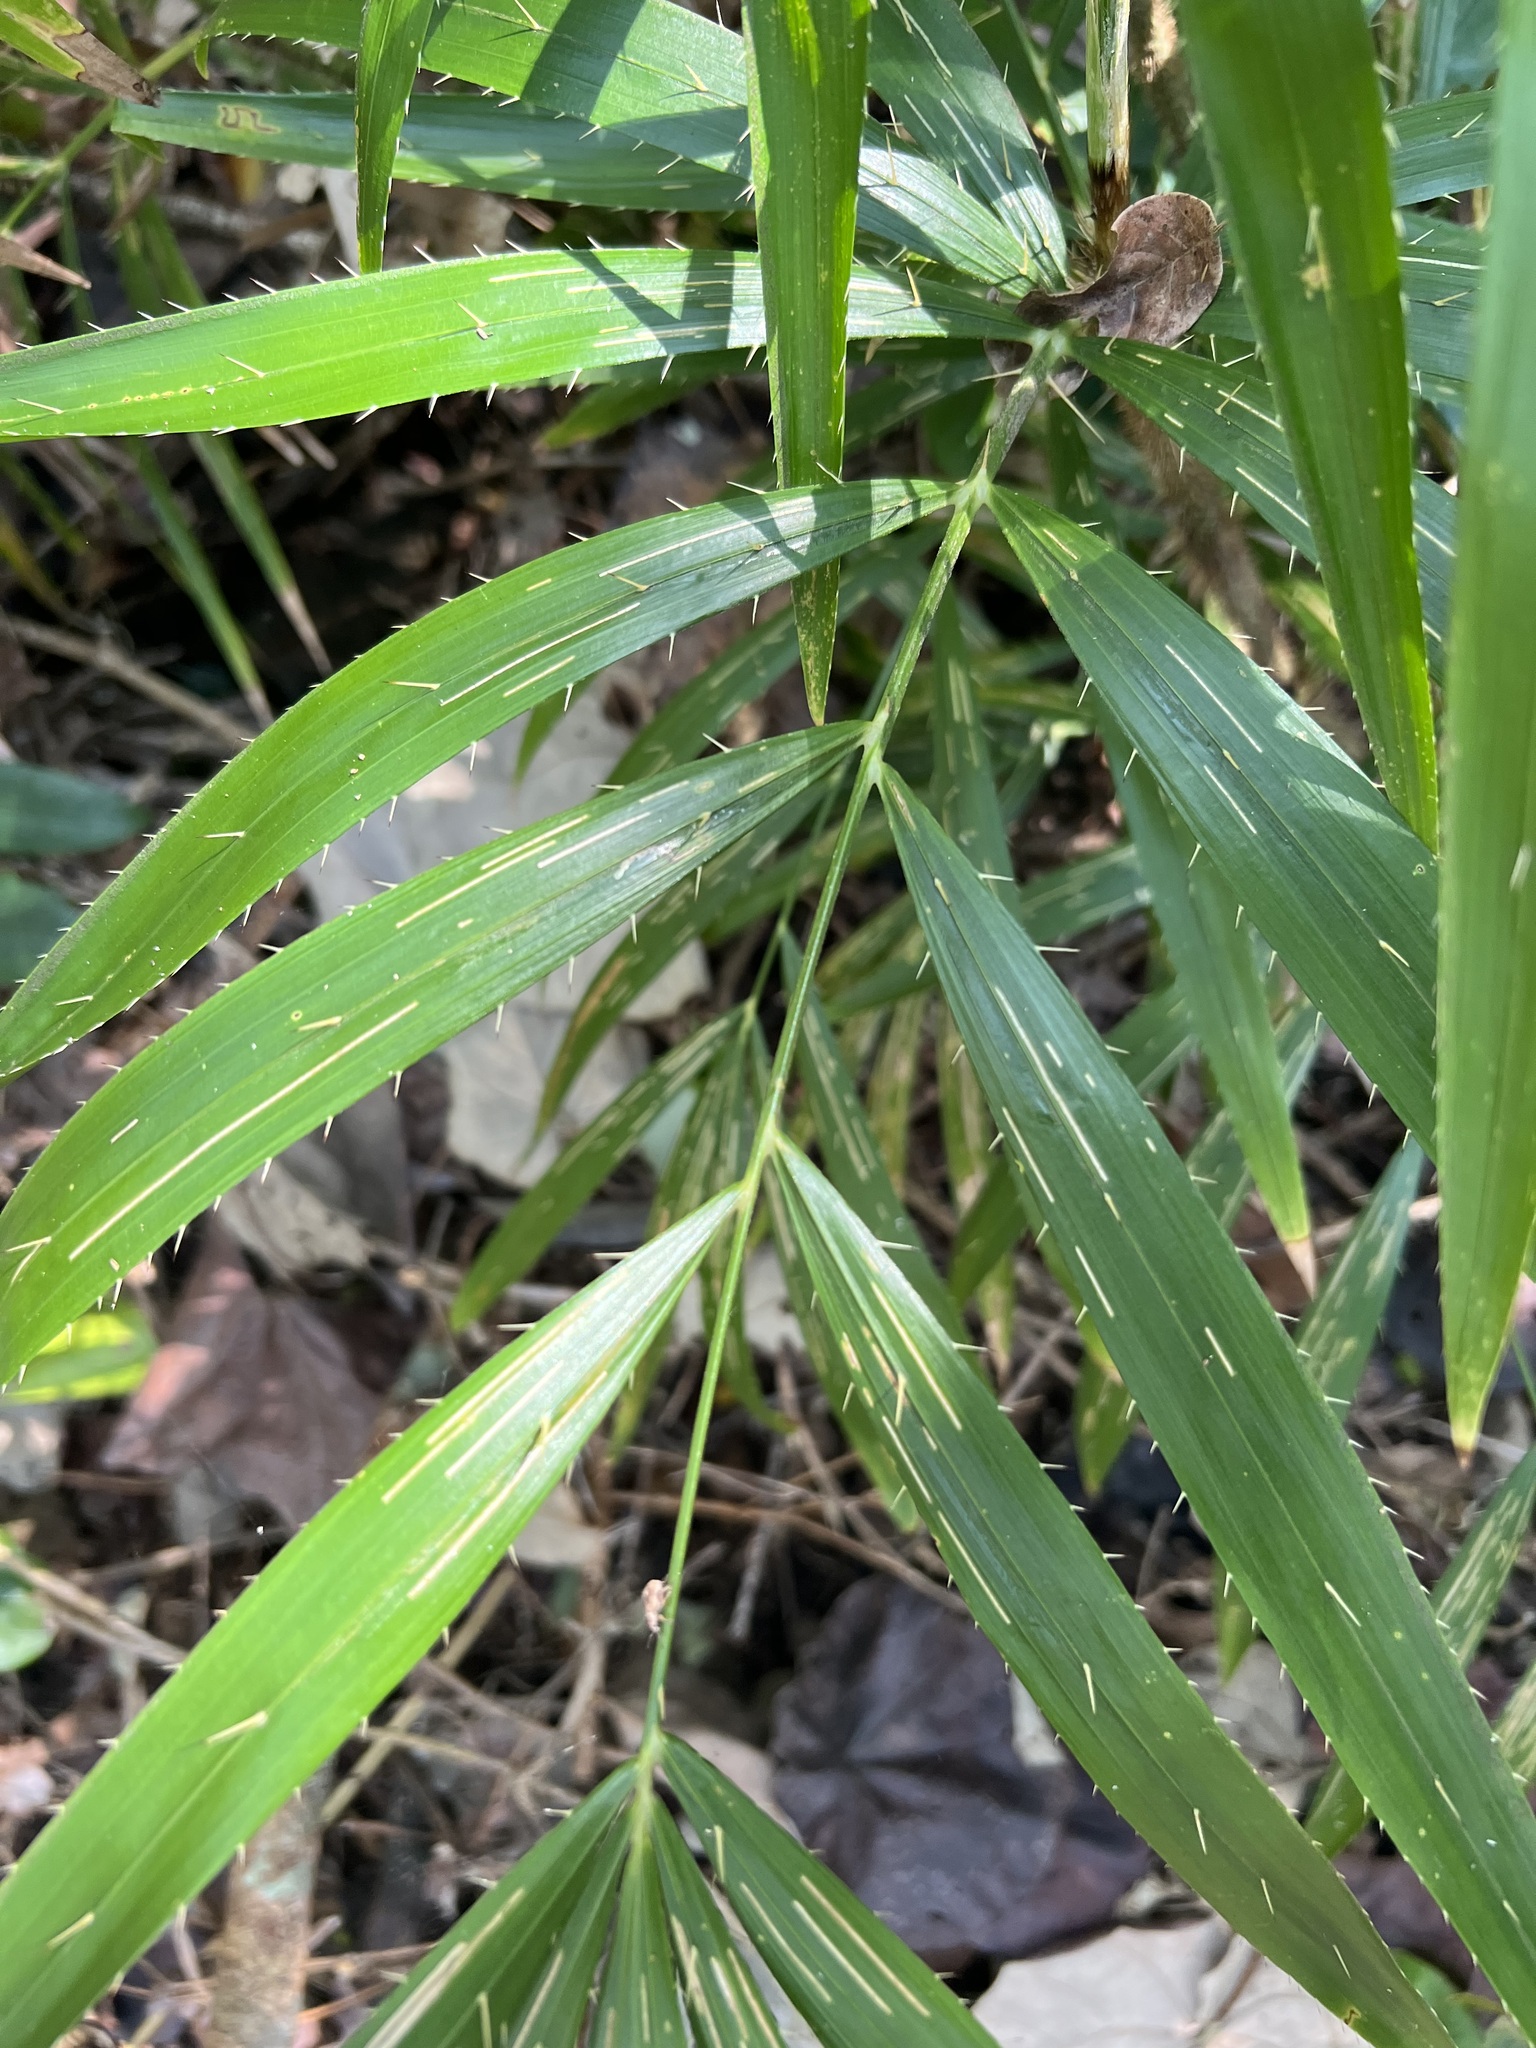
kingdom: Plantae
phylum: Tracheophyta
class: Liliopsida
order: Arecales
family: Arecaceae
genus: Calamus
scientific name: Calamus muelleri
